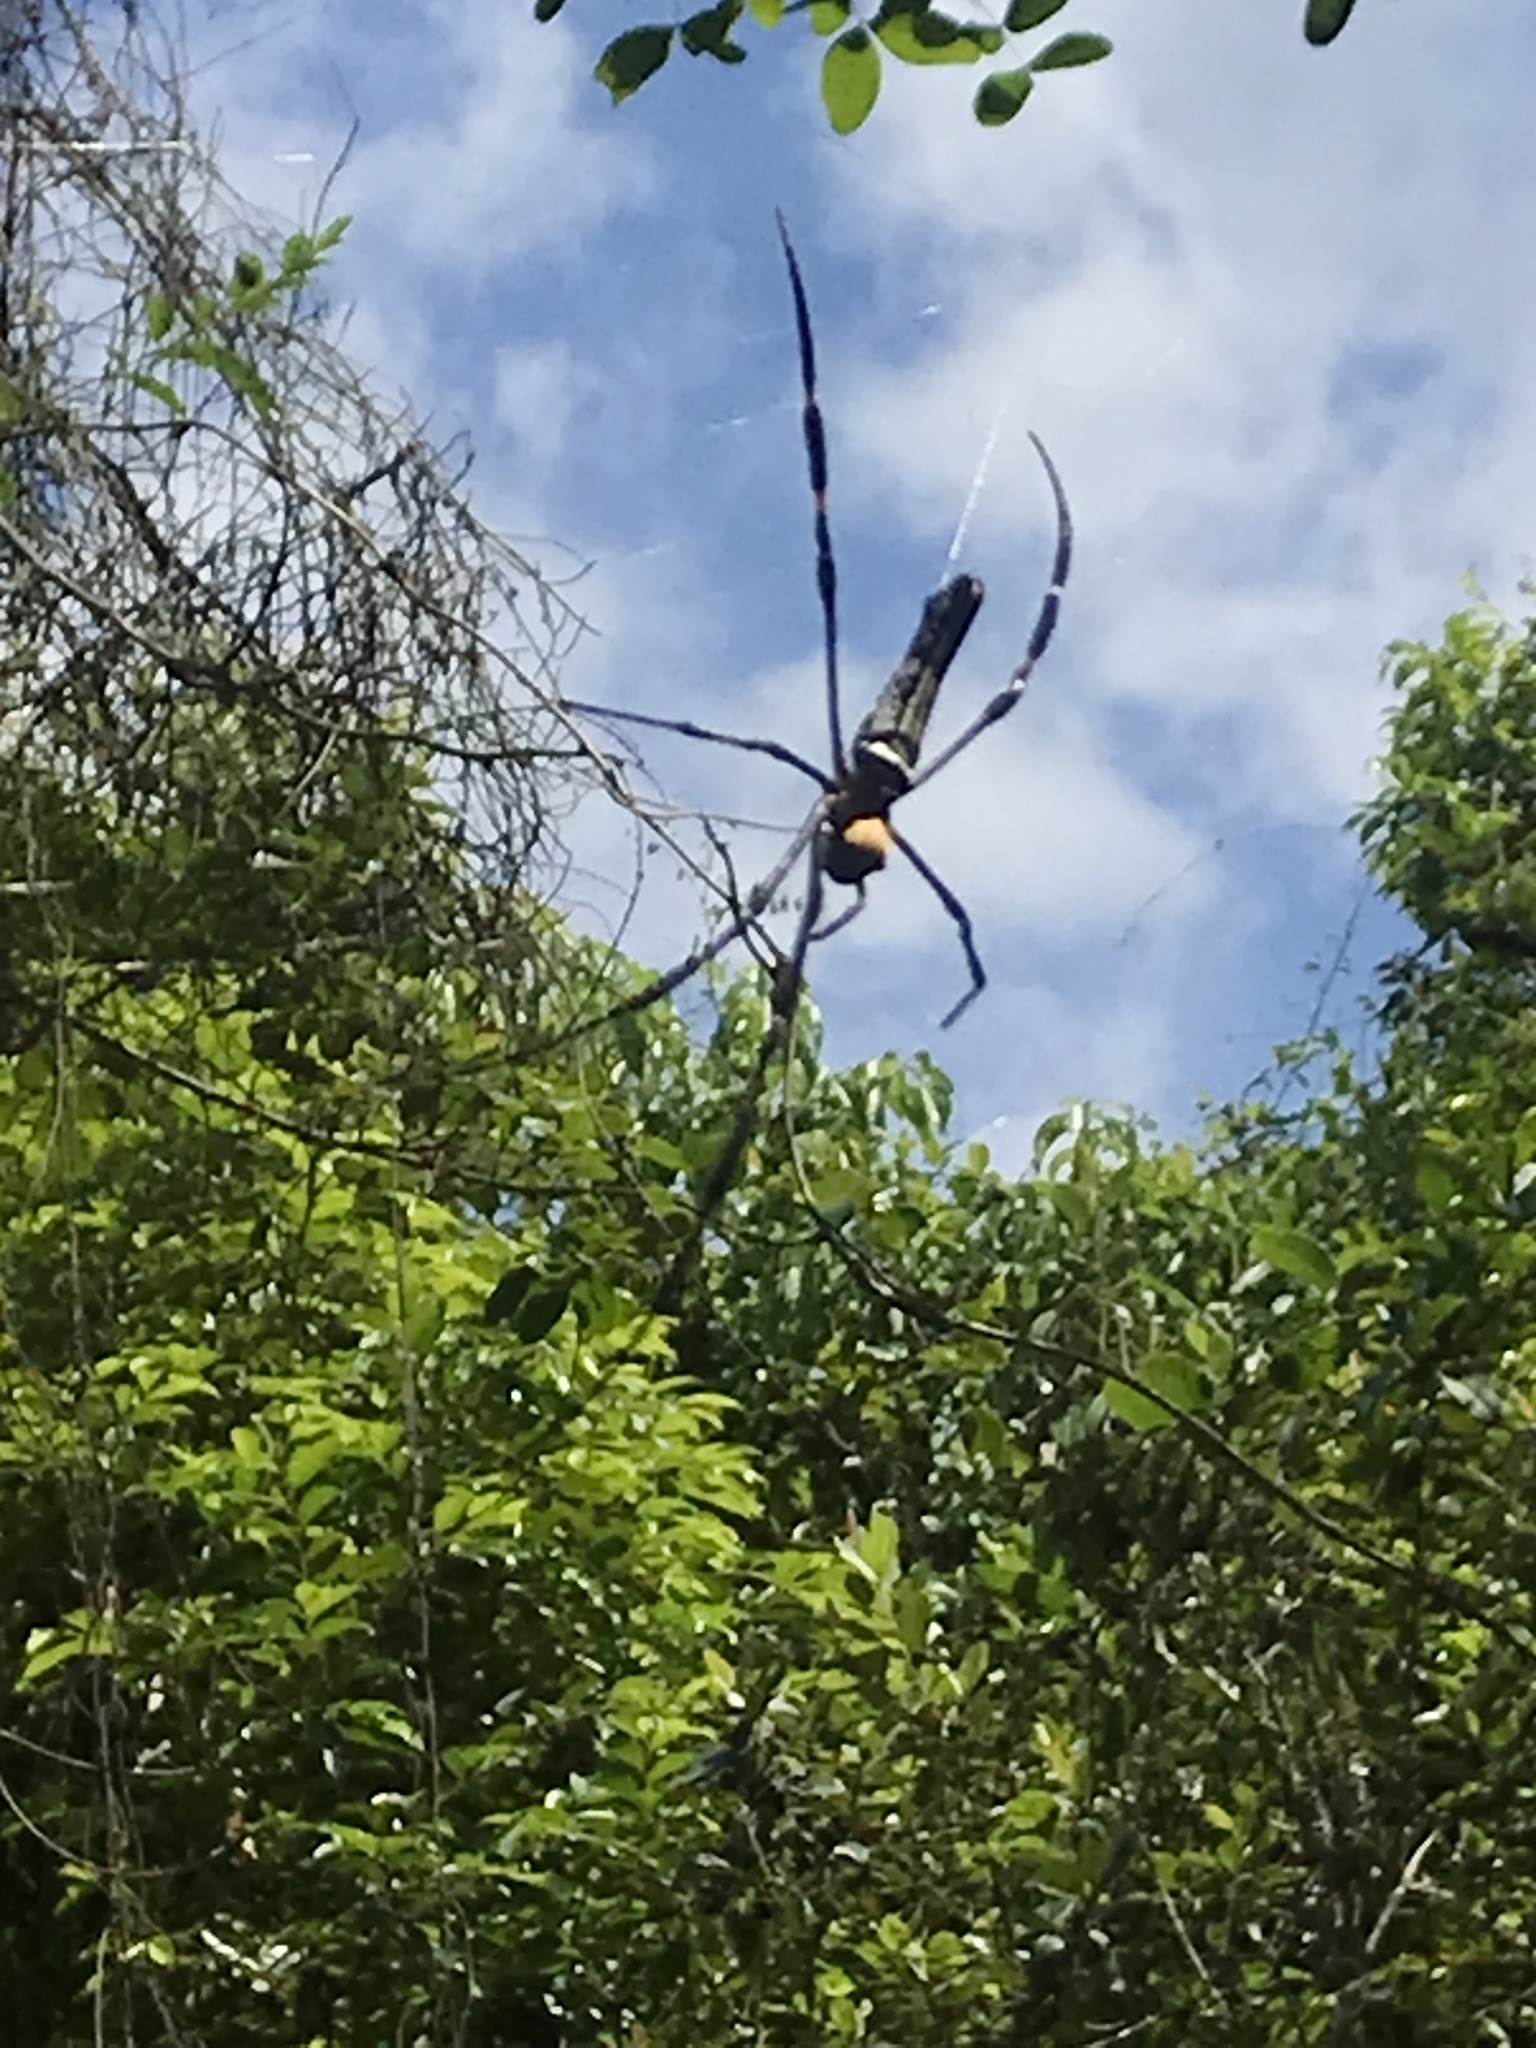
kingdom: Animalia
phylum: Arthropoda
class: Arachnida
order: Araneae
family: Araneidae
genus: Nephila
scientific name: Nephila pilipes
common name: Giant golden orb weaver
